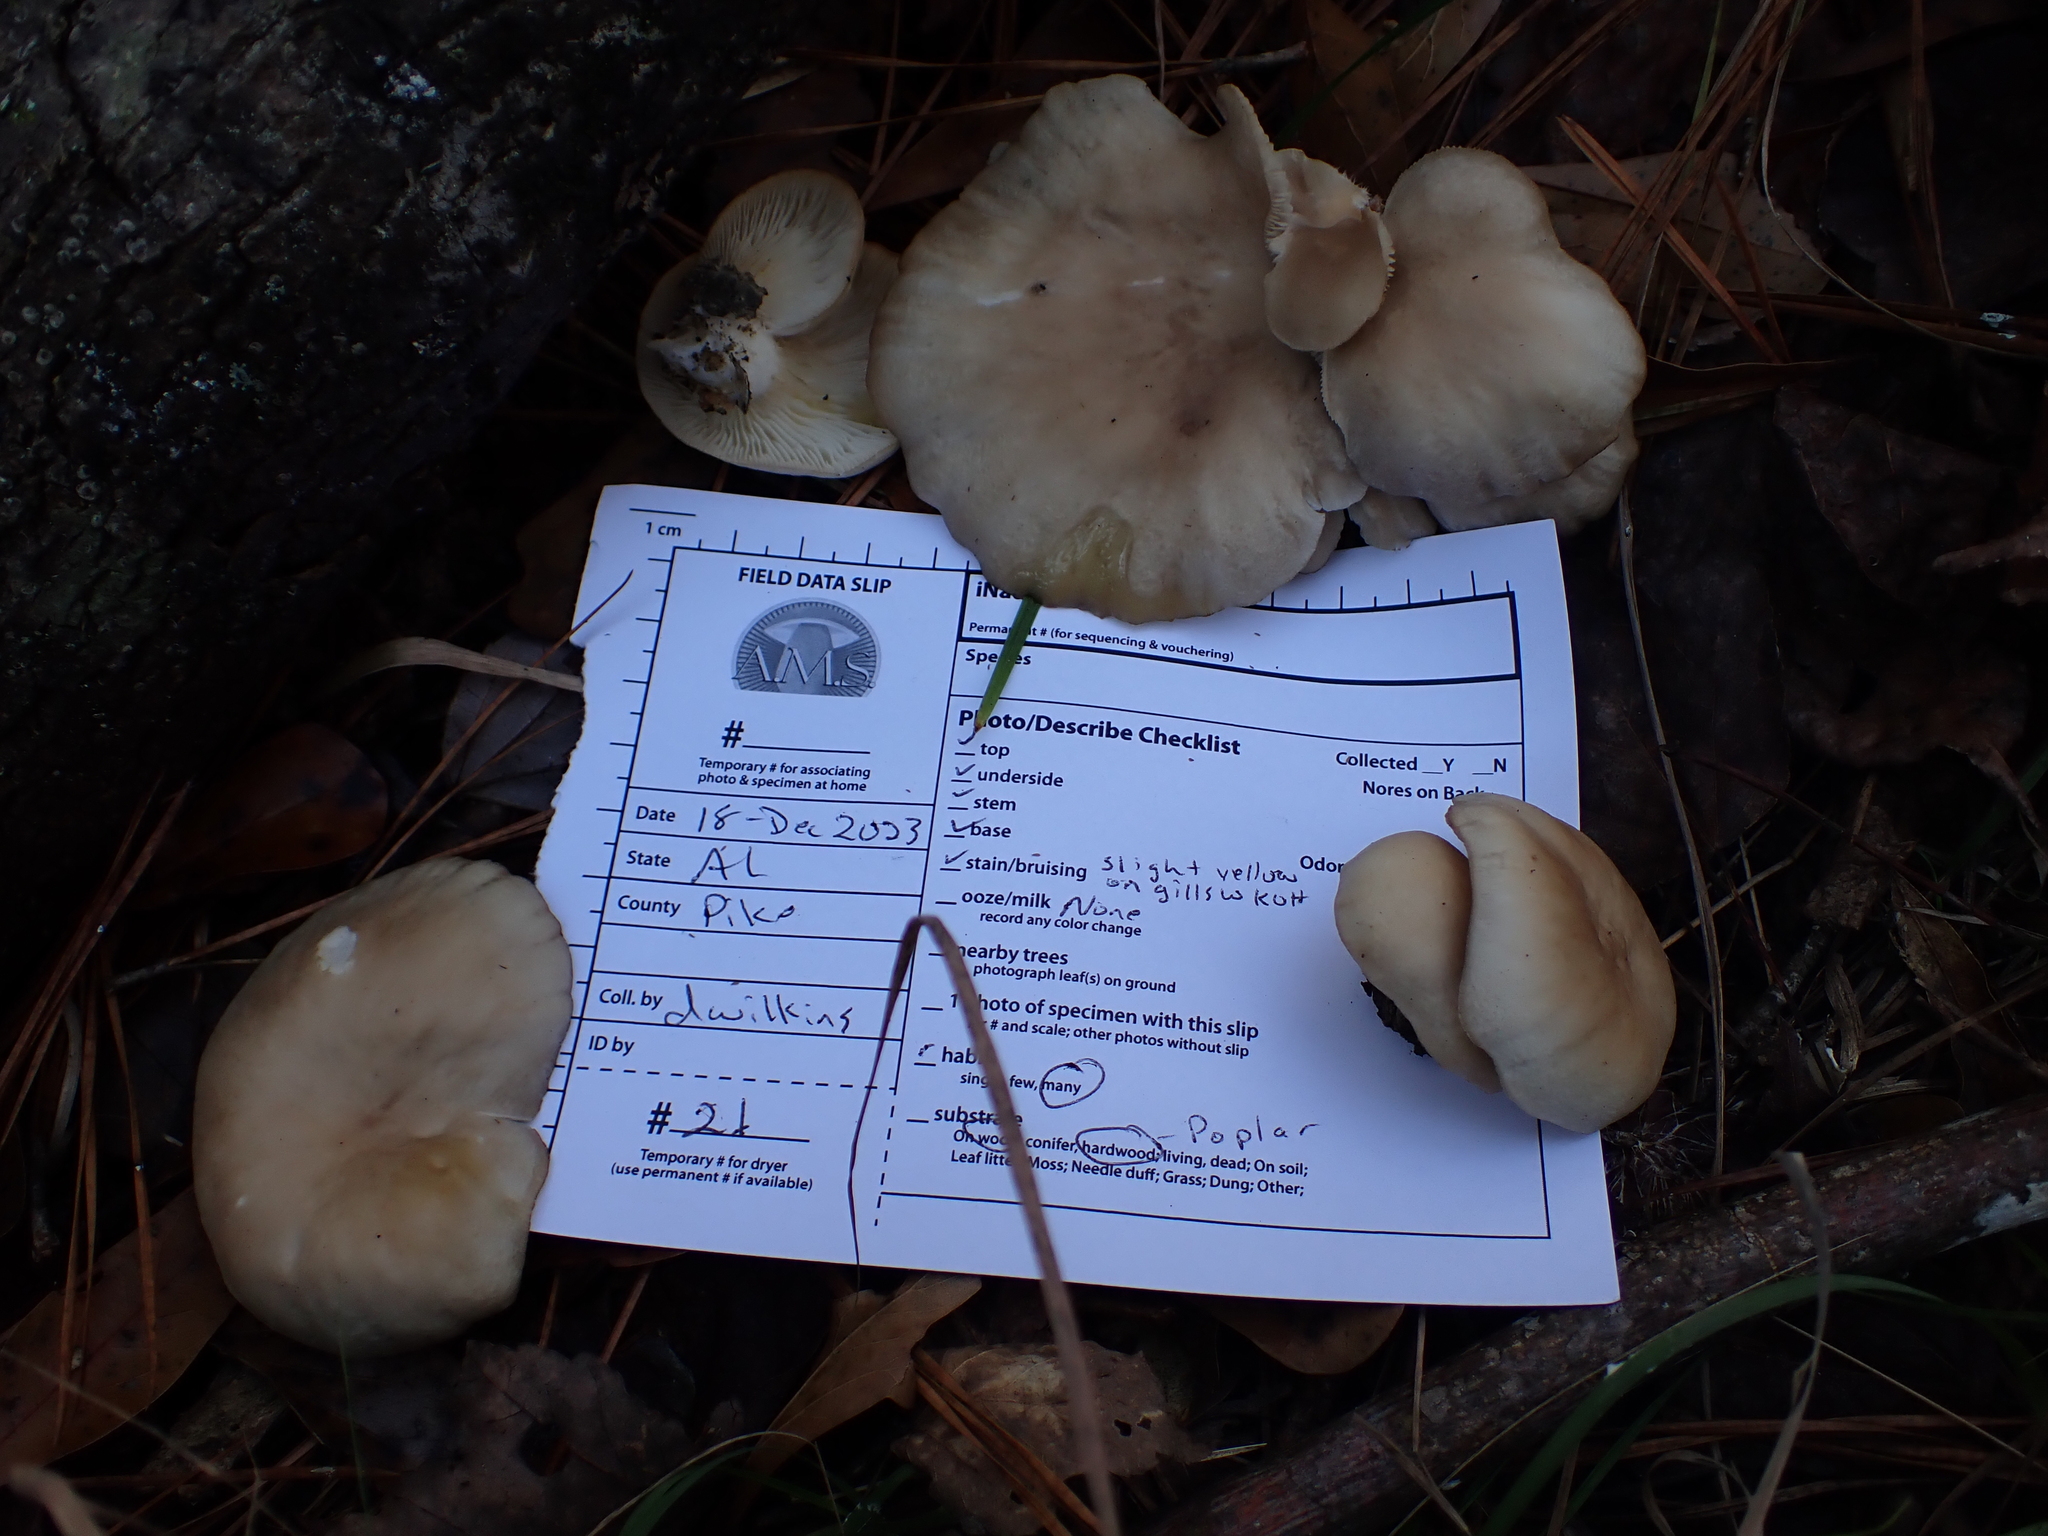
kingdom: Fungi
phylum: Basidiomycota
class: Agaricomycetes
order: Agaricales
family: Pleurotaceae
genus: Pleurotus
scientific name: Pleurotus ostreatus
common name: Oyster mushroom
